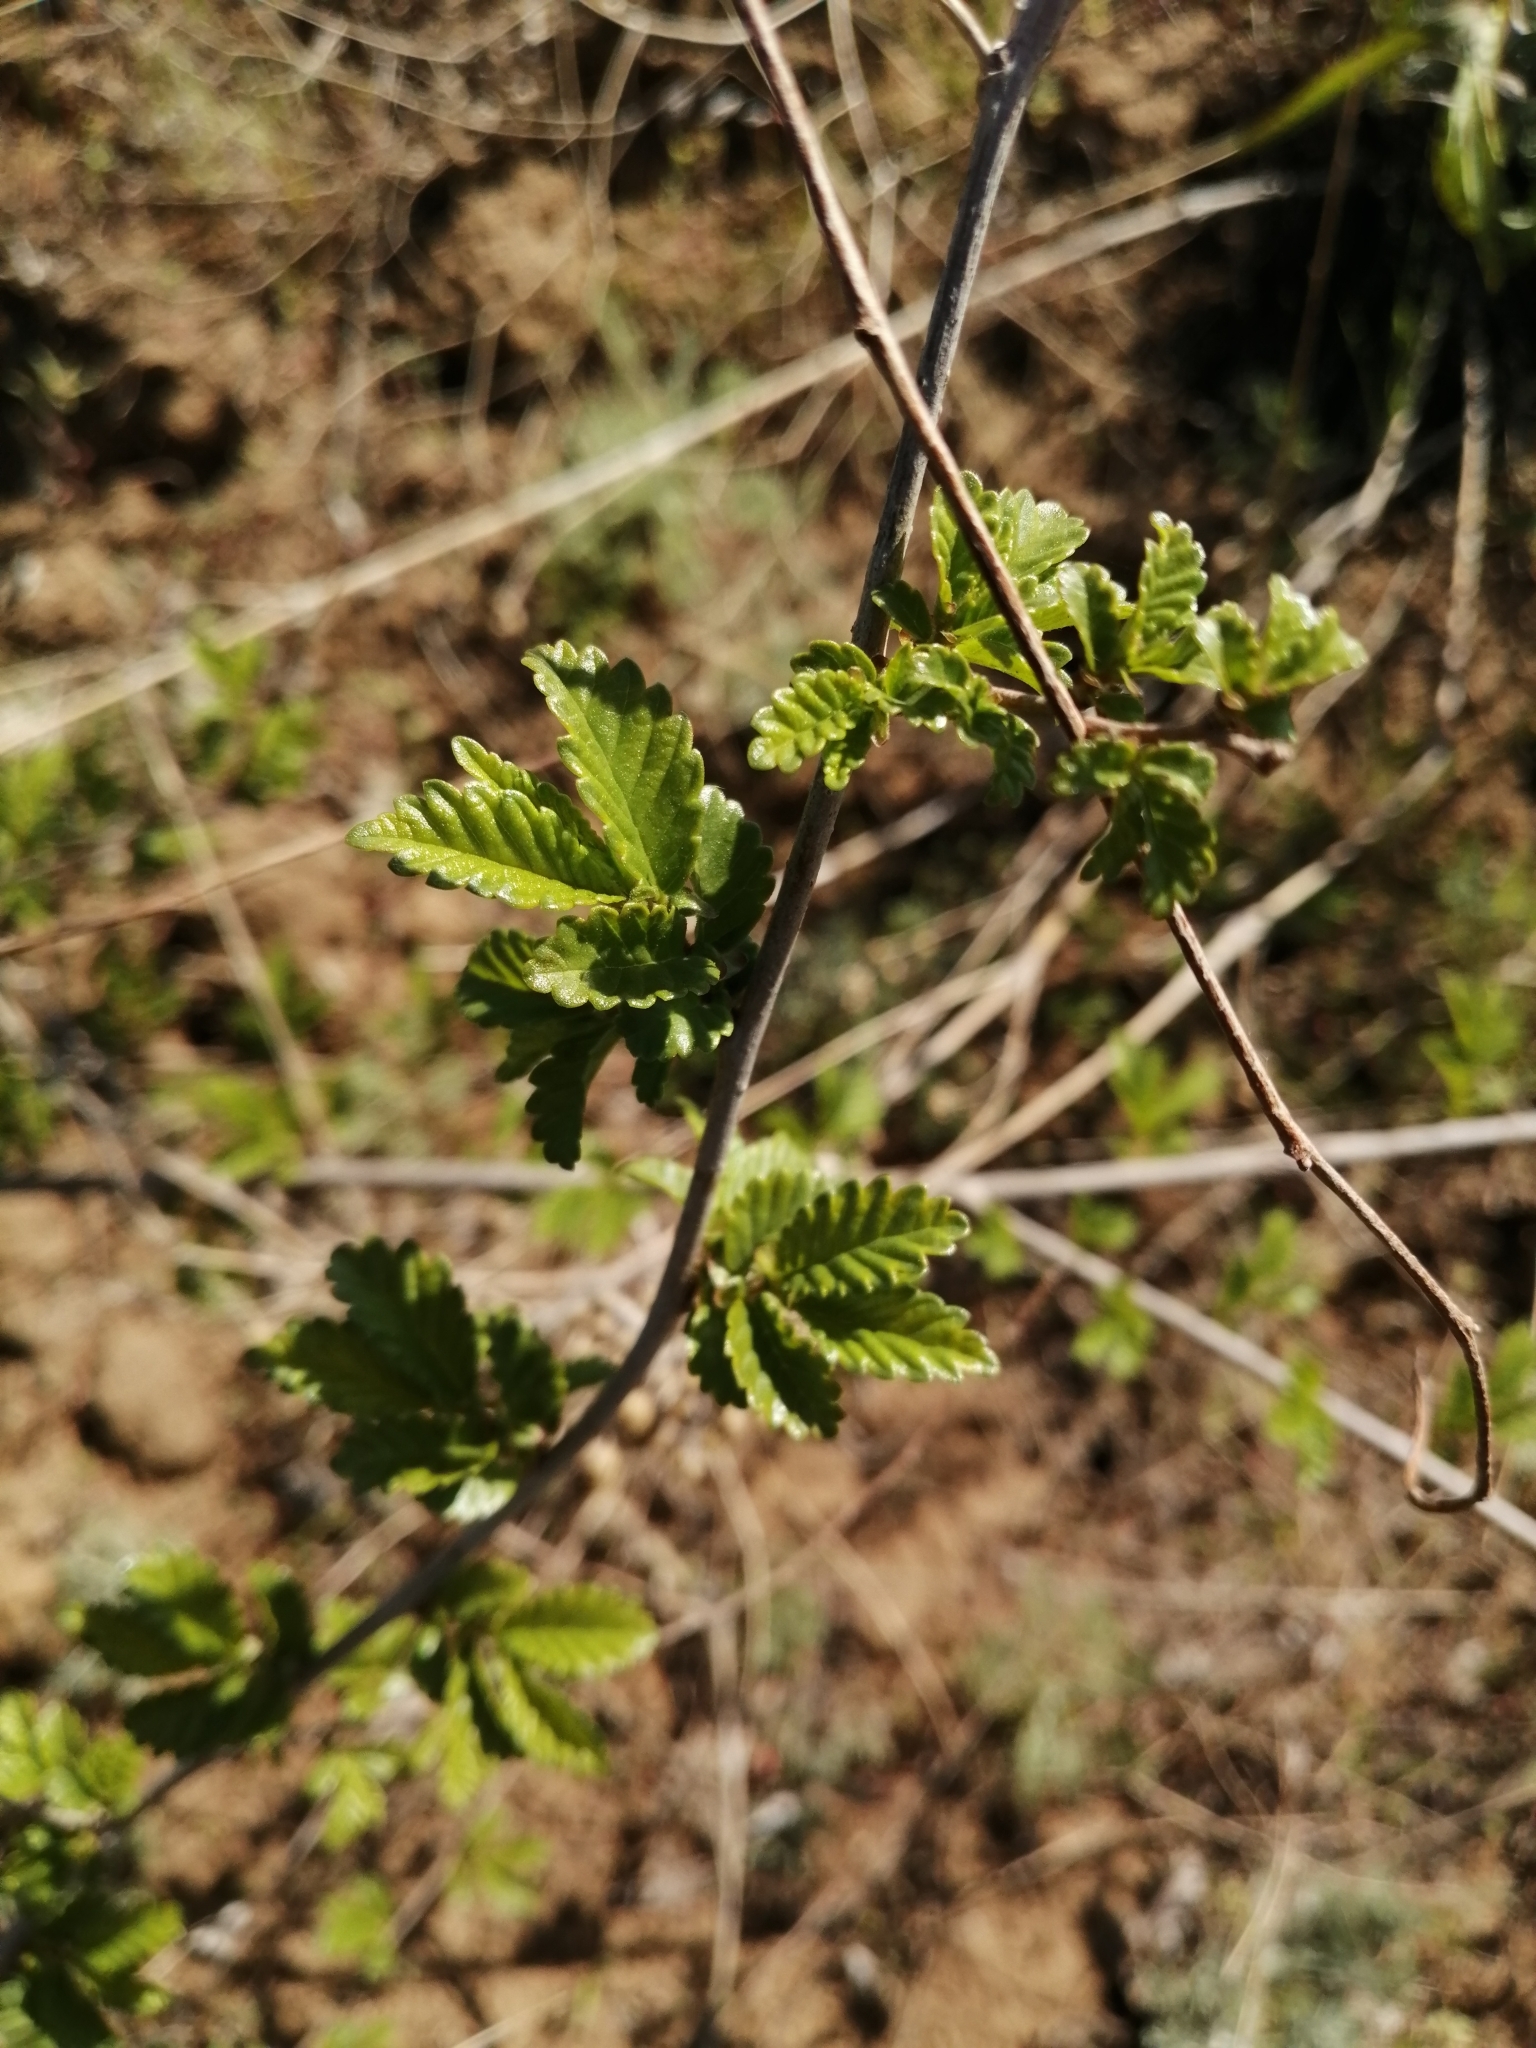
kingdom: Plantae
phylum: Tracheophyta
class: Magnoliopsida
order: Rosales
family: Ulmaceae
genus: Ulmus
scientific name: Ulmus pumila
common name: Siberian elm
